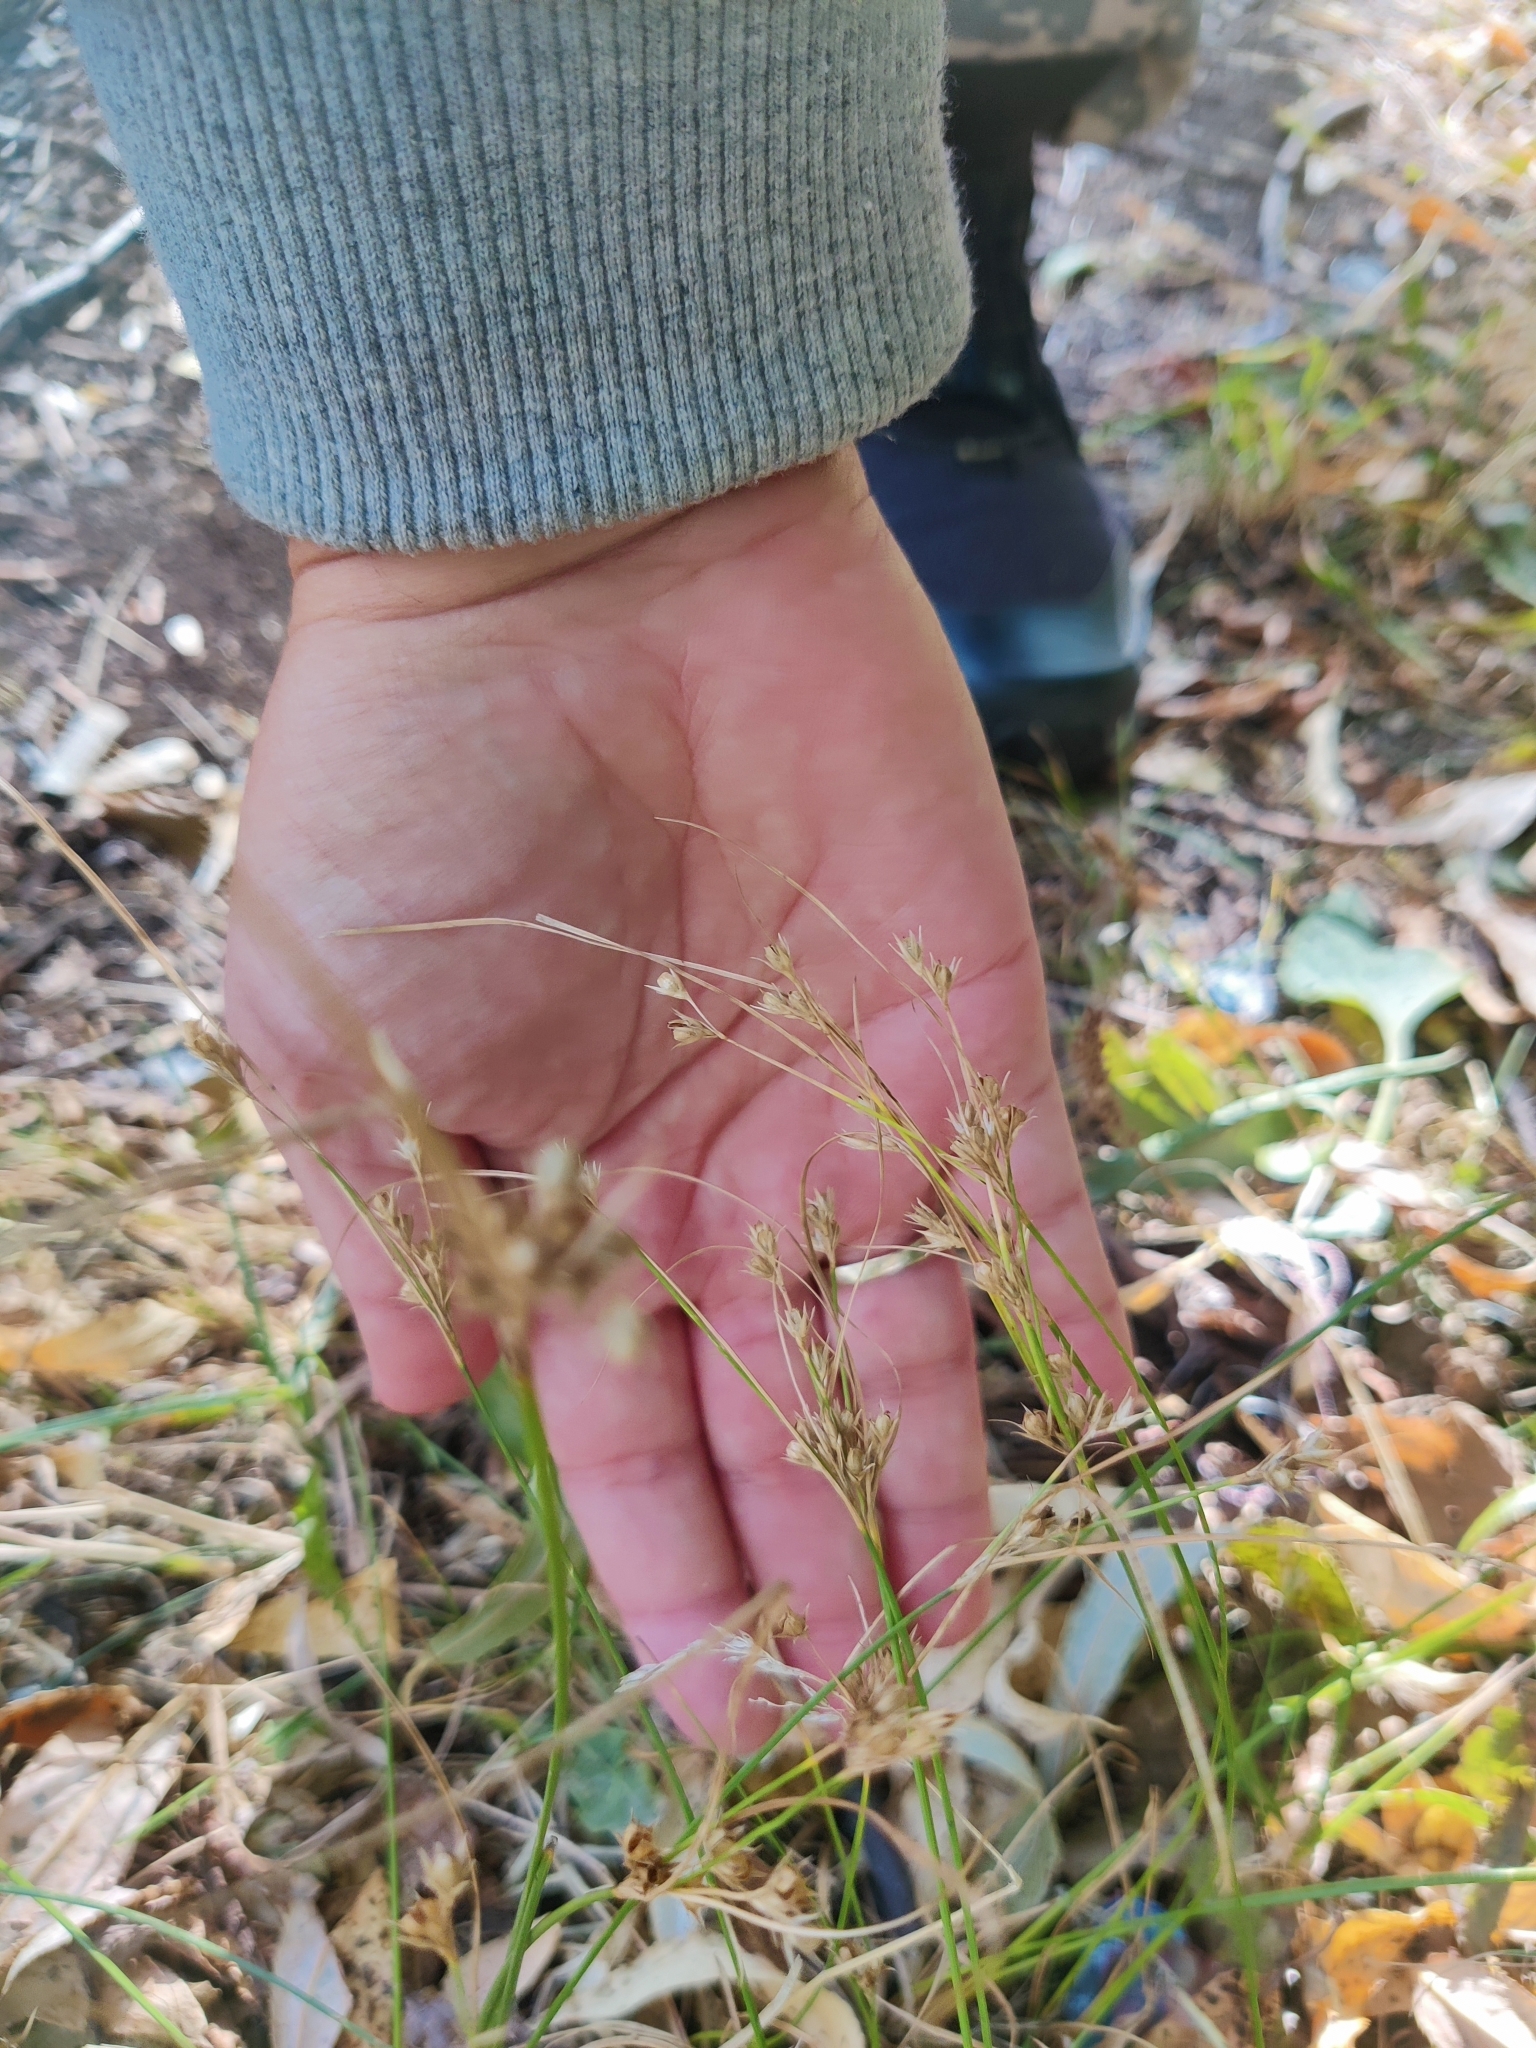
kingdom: Plantae
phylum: Tracheophyta
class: Liliopsida
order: Poales
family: Juncaceae
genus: Juncus
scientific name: Juncus tenuis
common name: Slender rush
